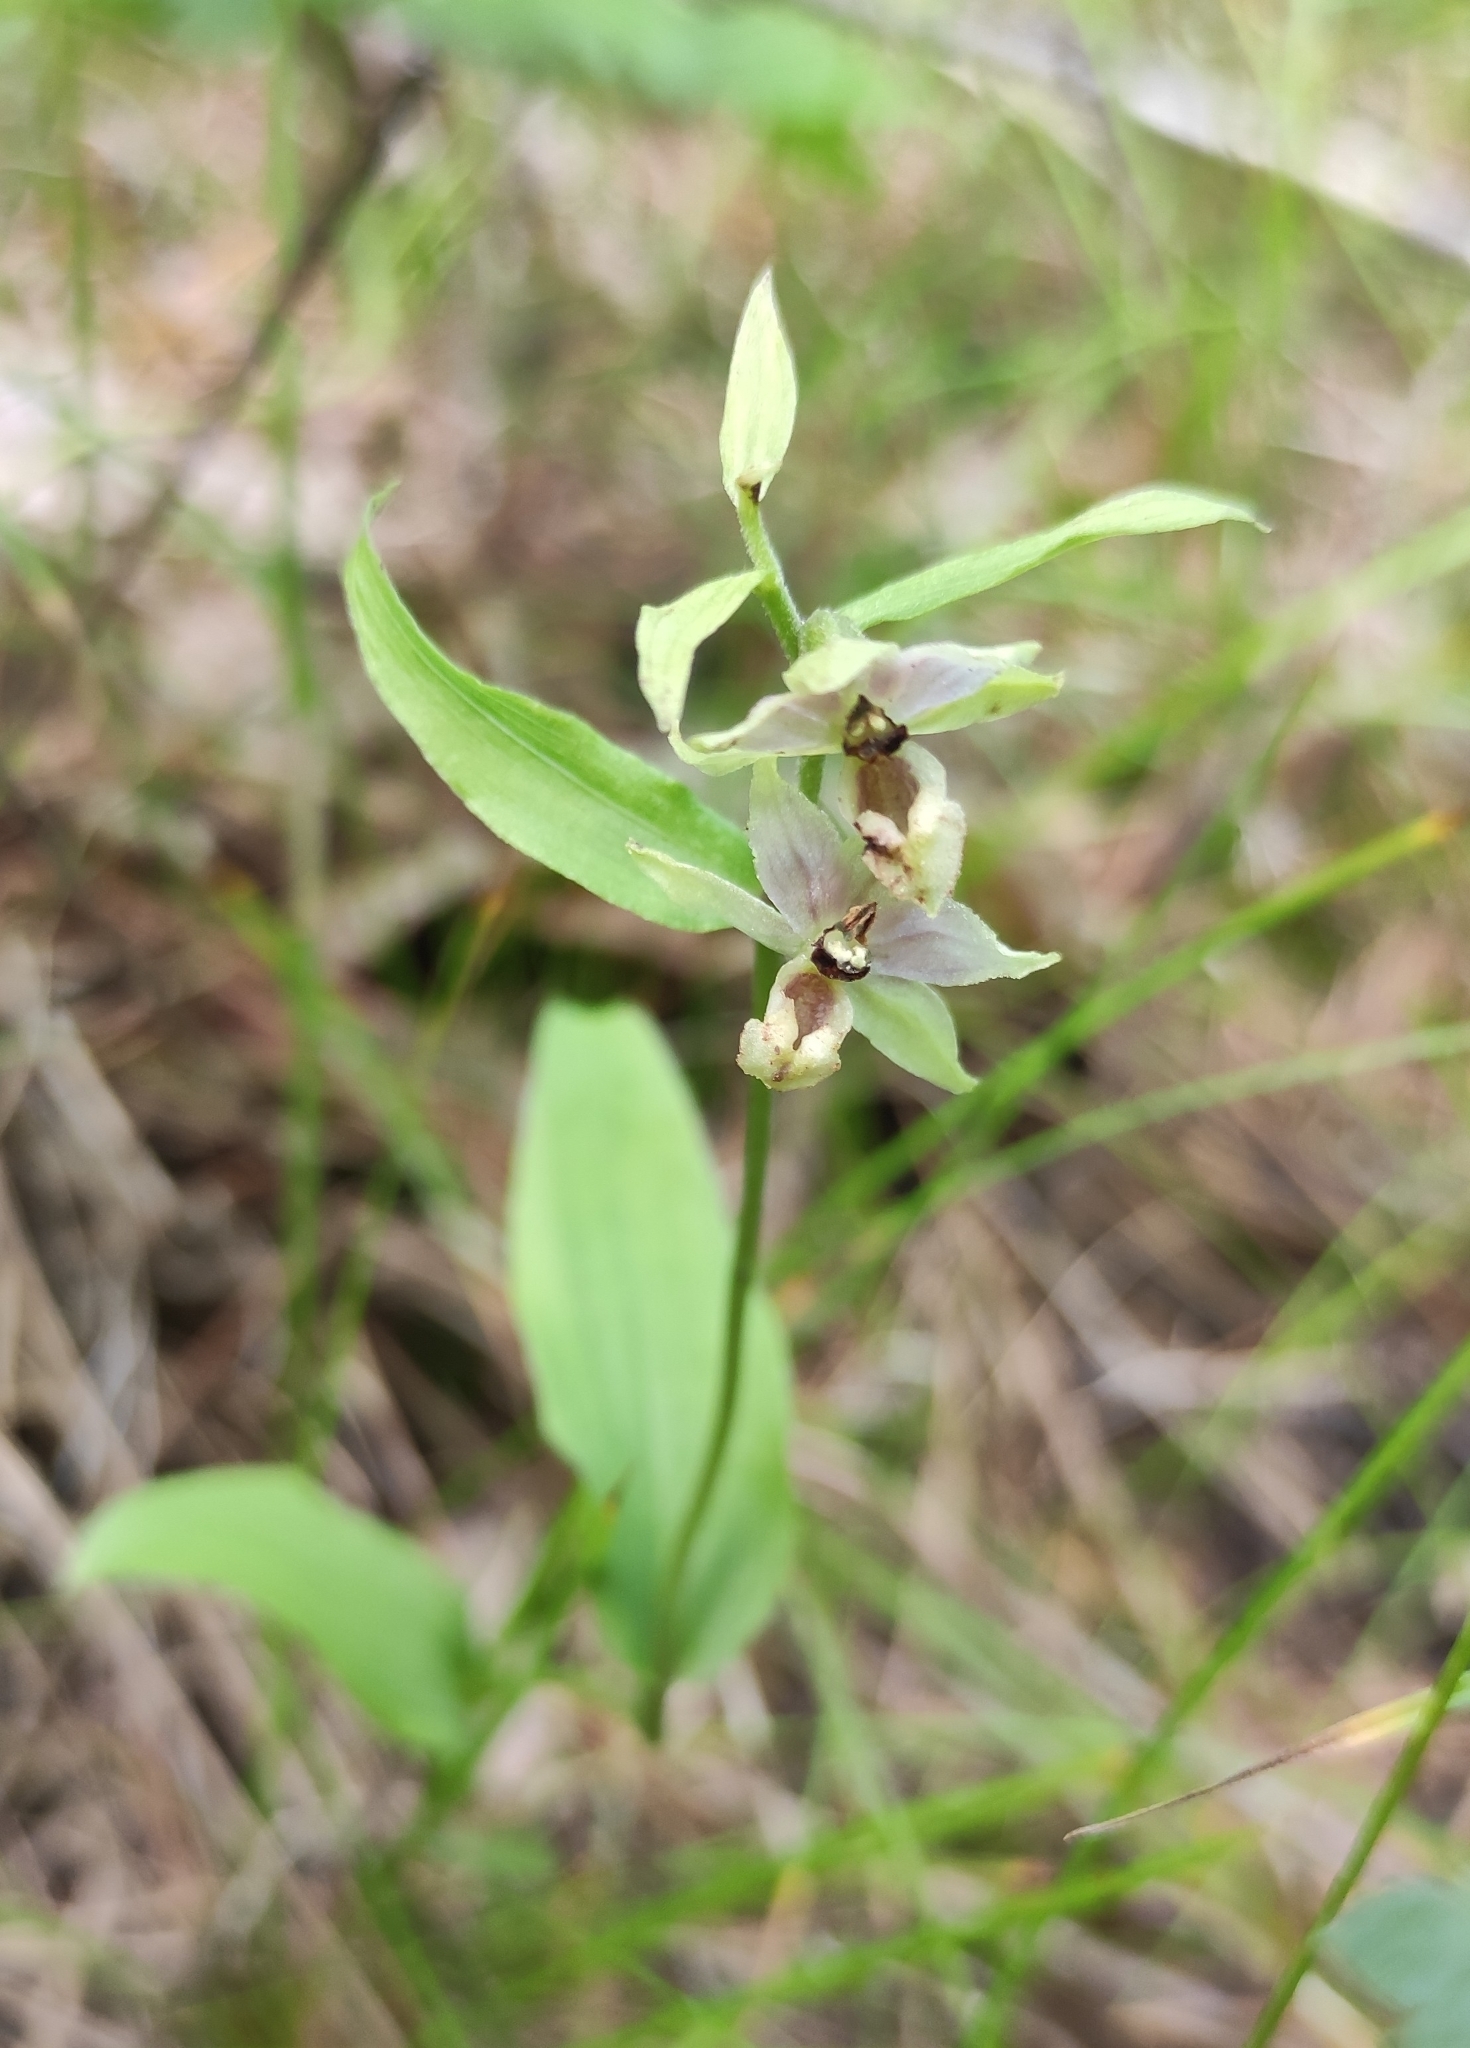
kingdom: Plantae
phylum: Tracheophyta
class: Liliopsida
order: Asparagales
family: Orchidaceae
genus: Epipactis
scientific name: Epipactis helleborine
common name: Broad-leaved helleborine
